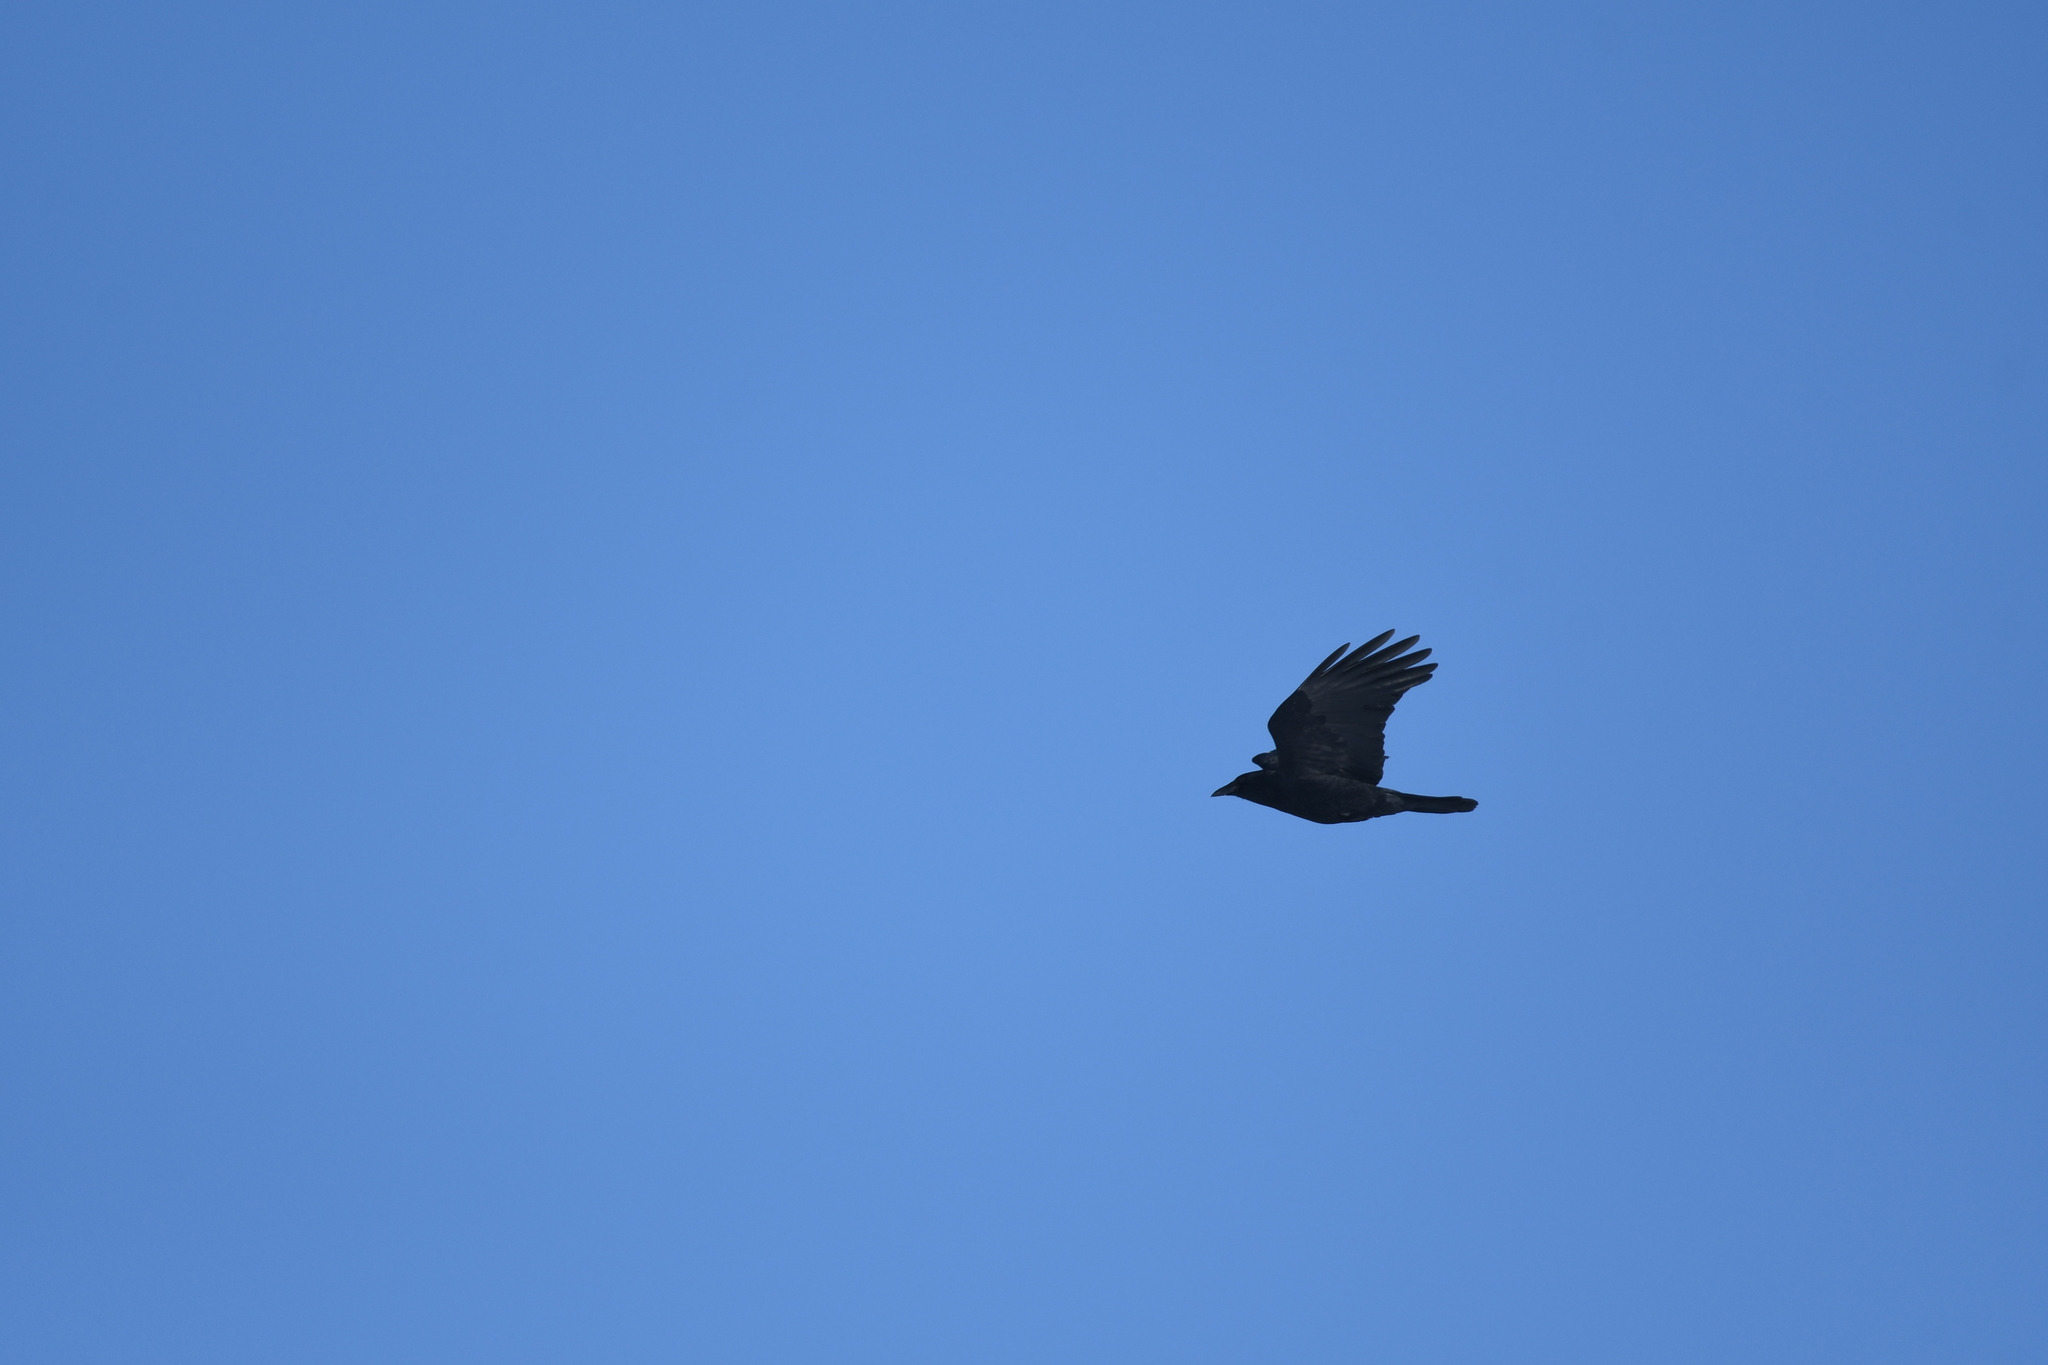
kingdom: Animalia
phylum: Chordata
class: Aves
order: Passeriformes
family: Corvidae
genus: Corvus
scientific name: Corvus brachyrhynchos
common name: American crow
